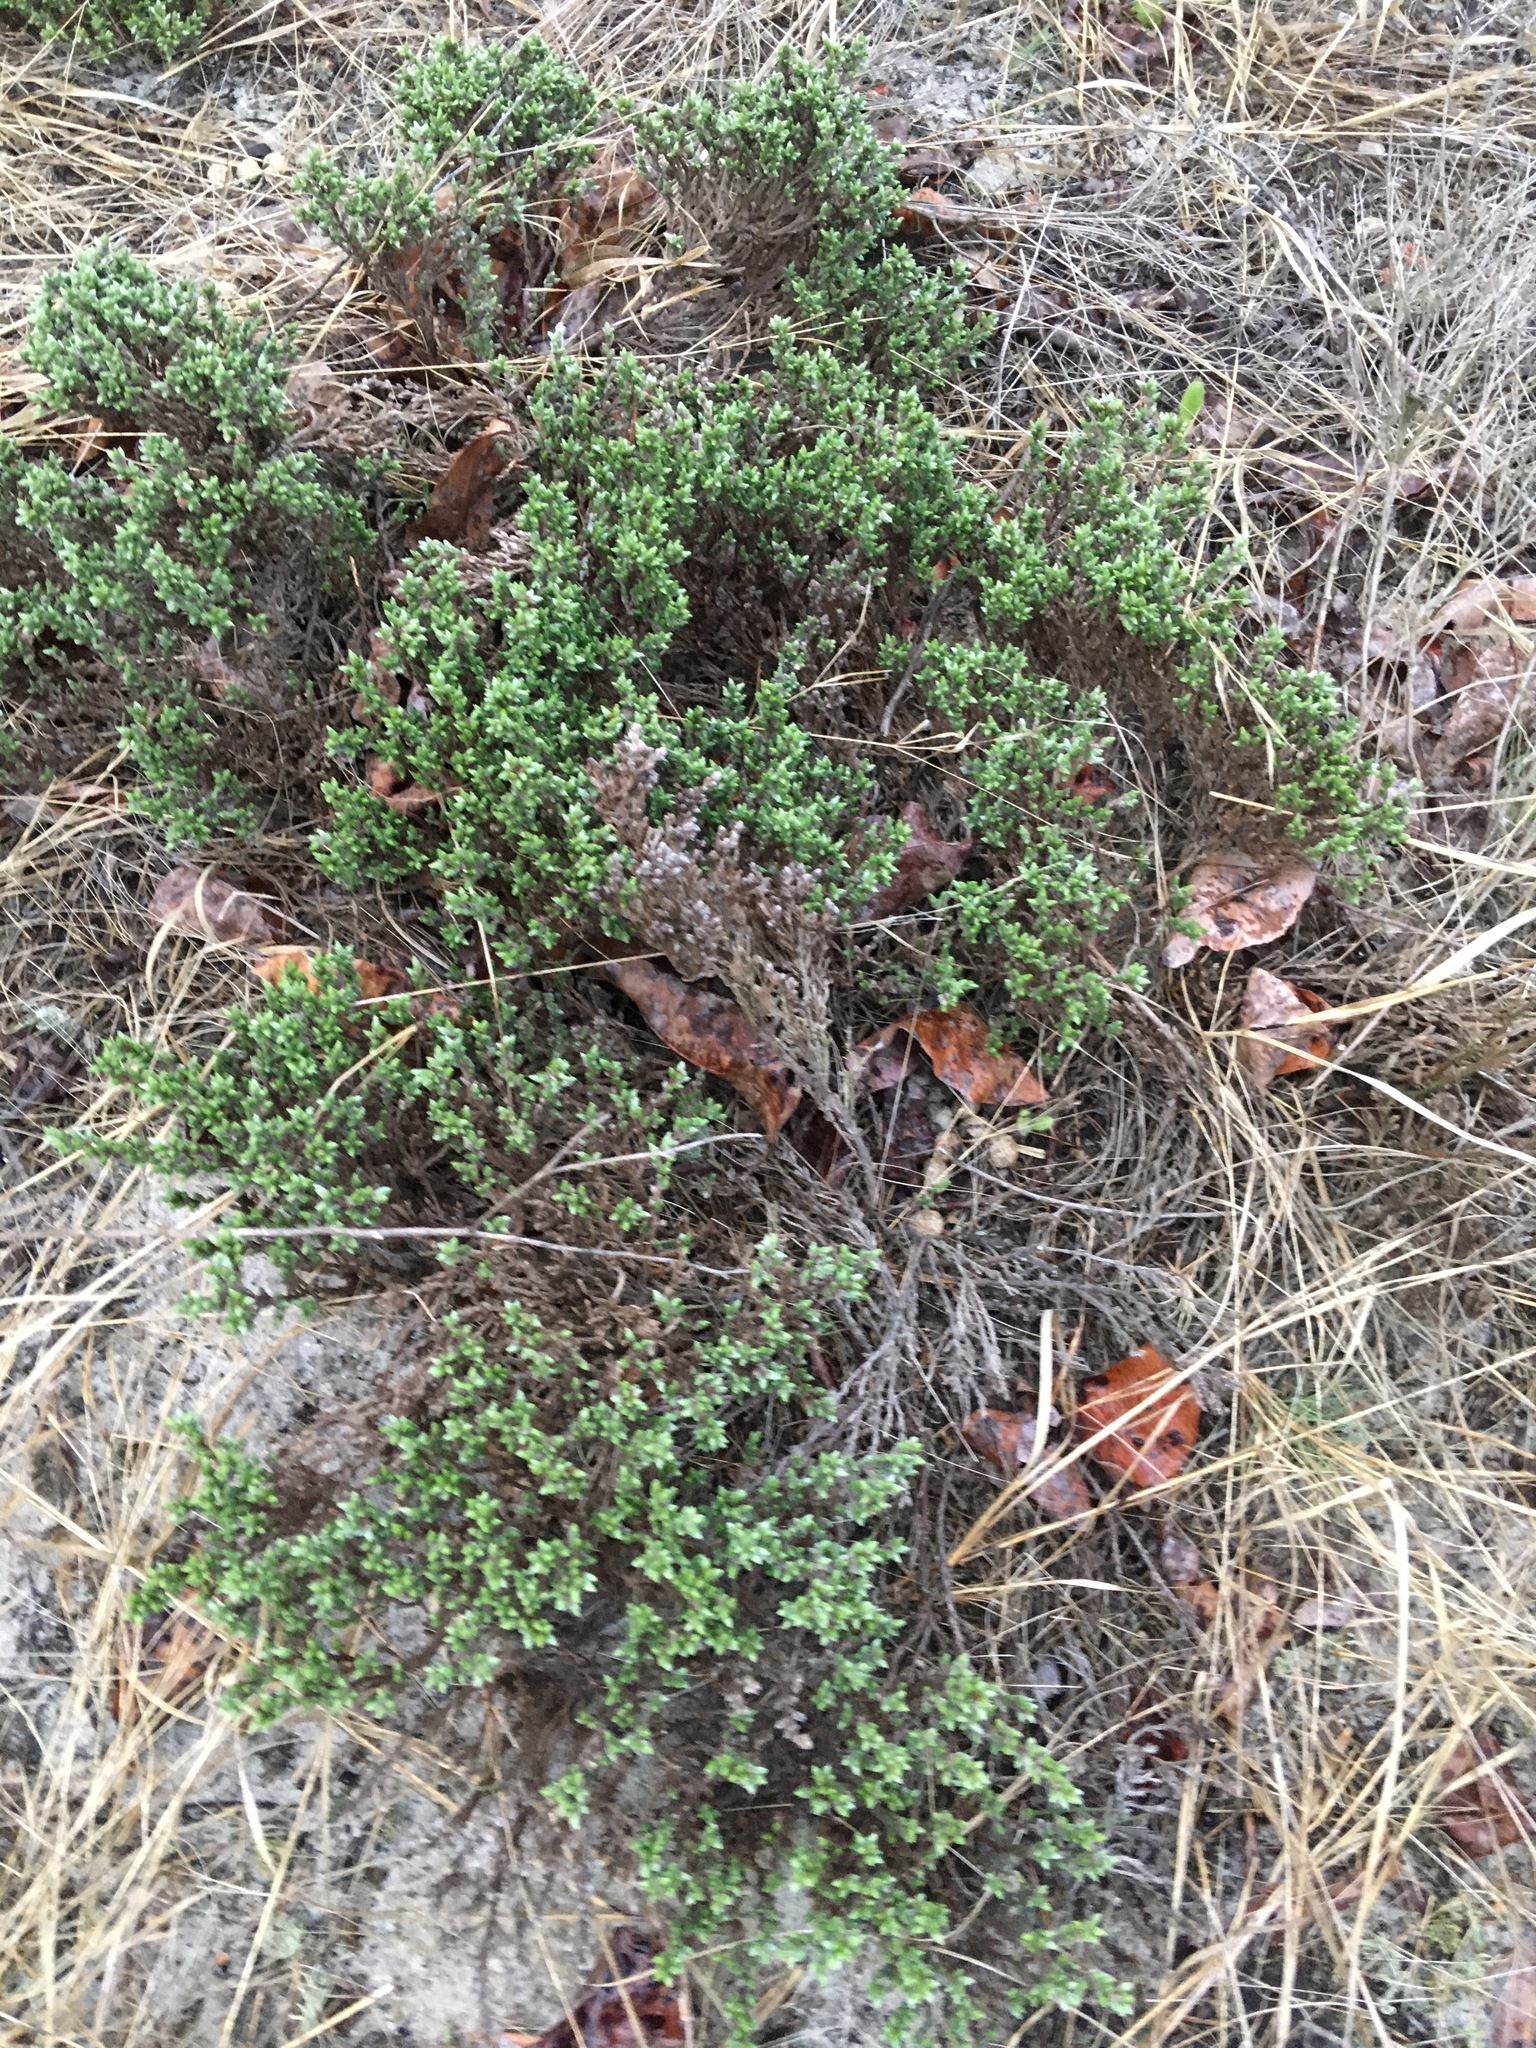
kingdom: Plantae
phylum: Tracheophyta
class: Magnoliopsida
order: Malvales
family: Cistaceae
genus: Hudsonia
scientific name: Hudsonia tomentosa
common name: Beach-heath
